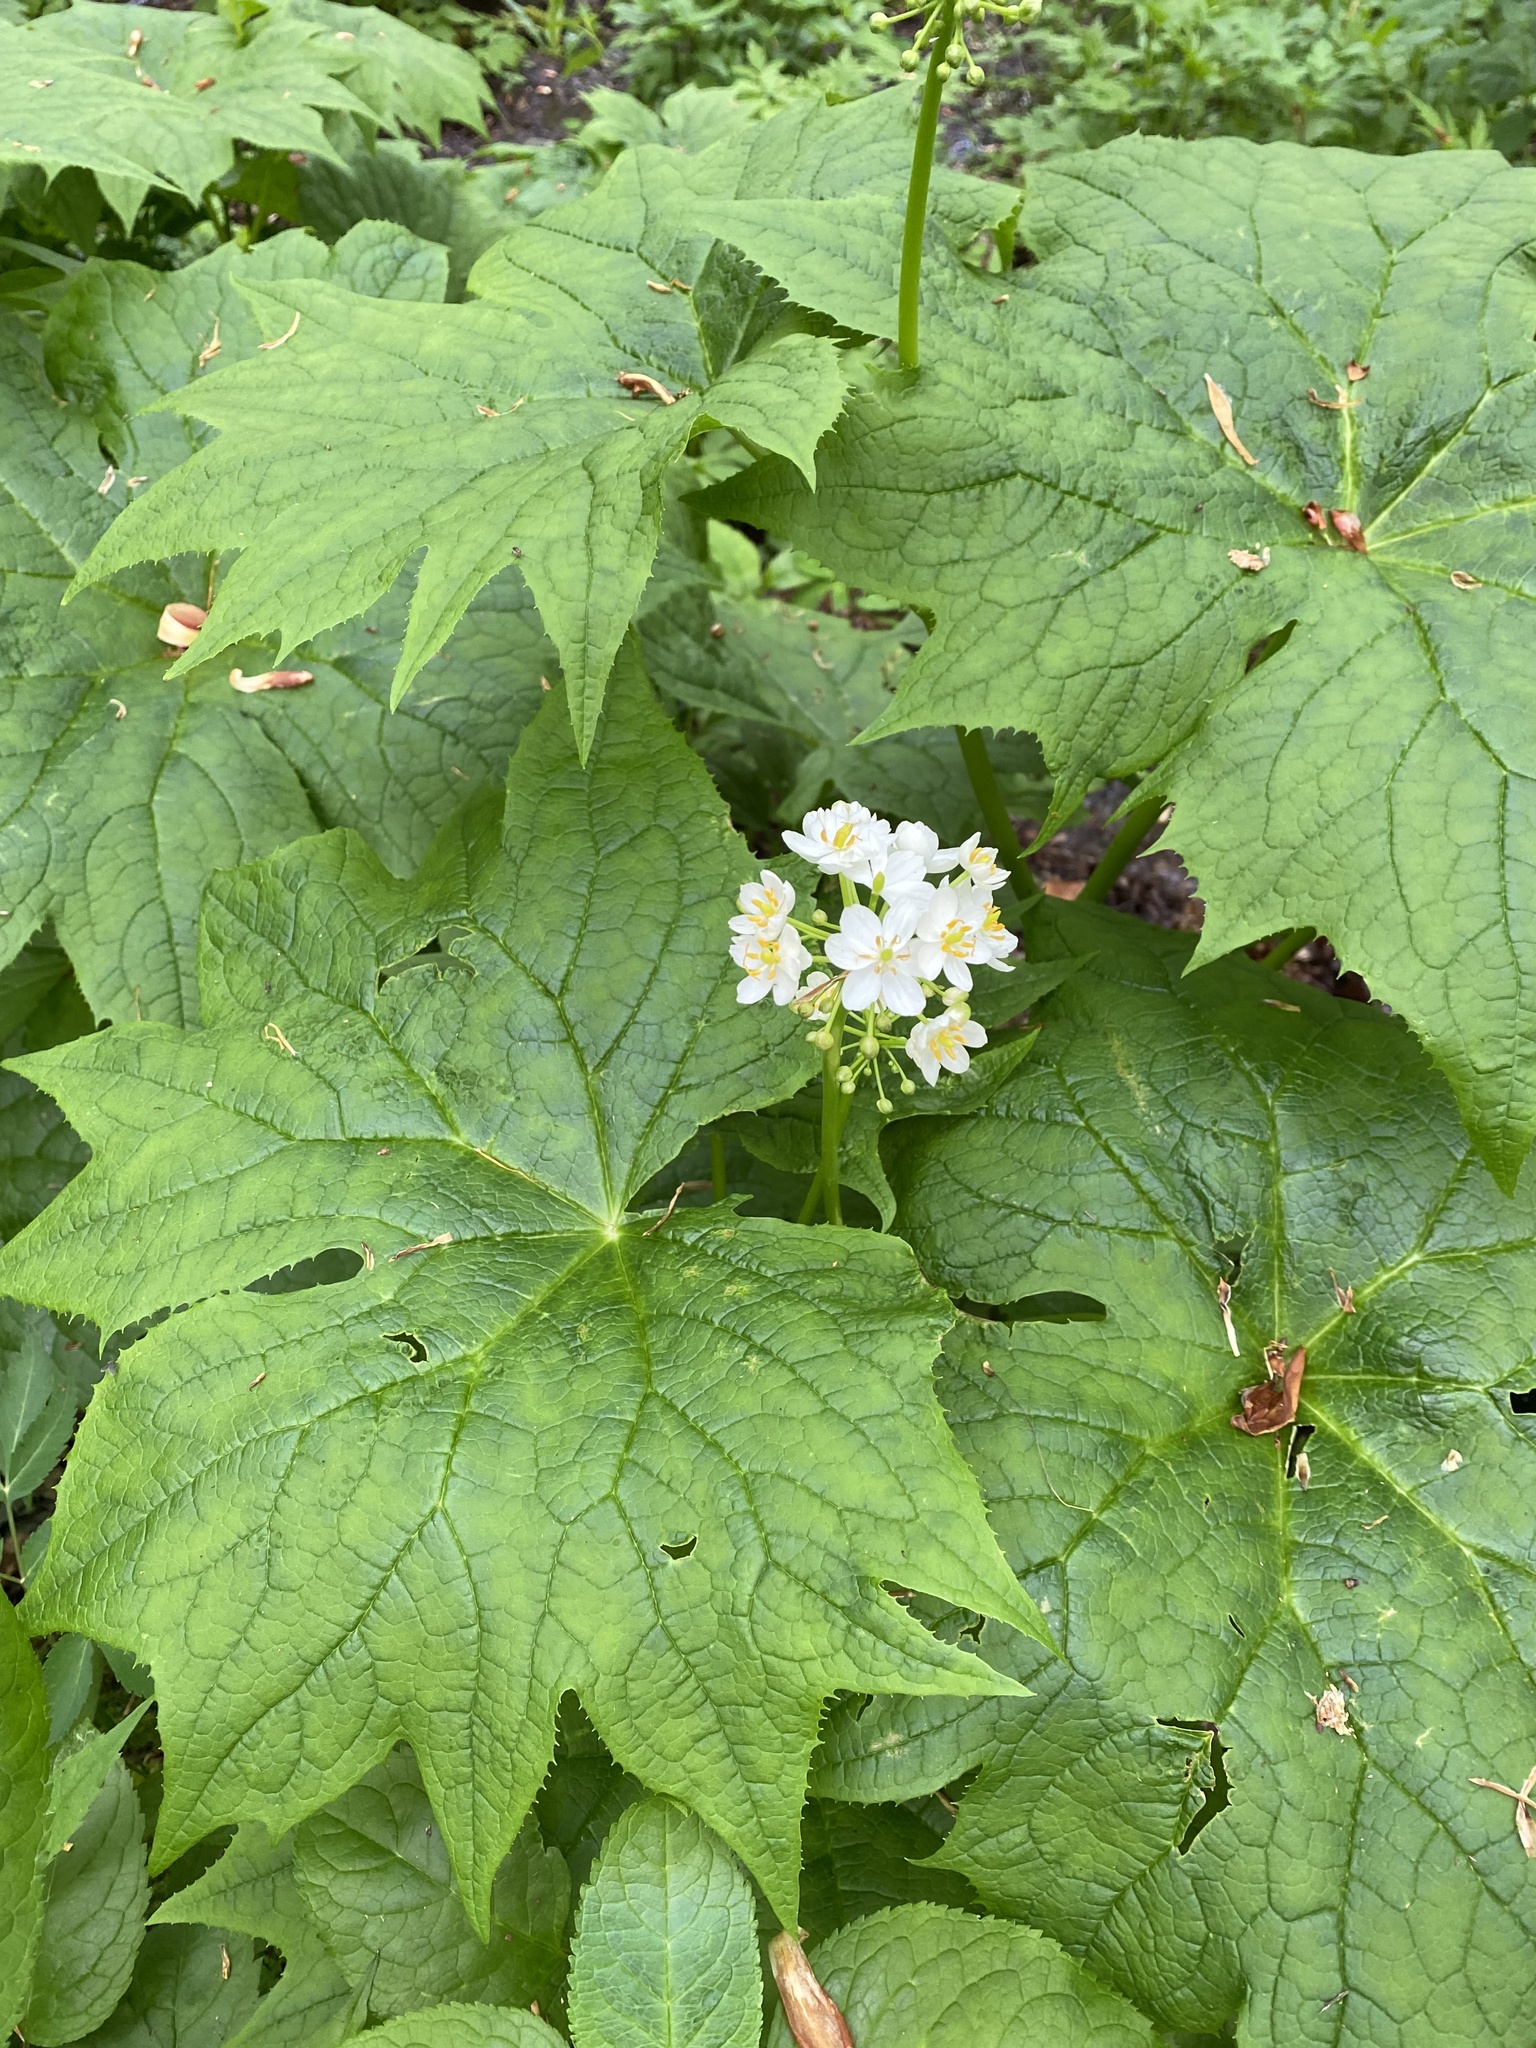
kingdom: Plantae
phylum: Tracheophyta
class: Magnoliopsida
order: Ranunculales
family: Berberidaceae
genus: Diphylleia
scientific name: Diphylleia cymosa
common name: Umbrella-leaf
